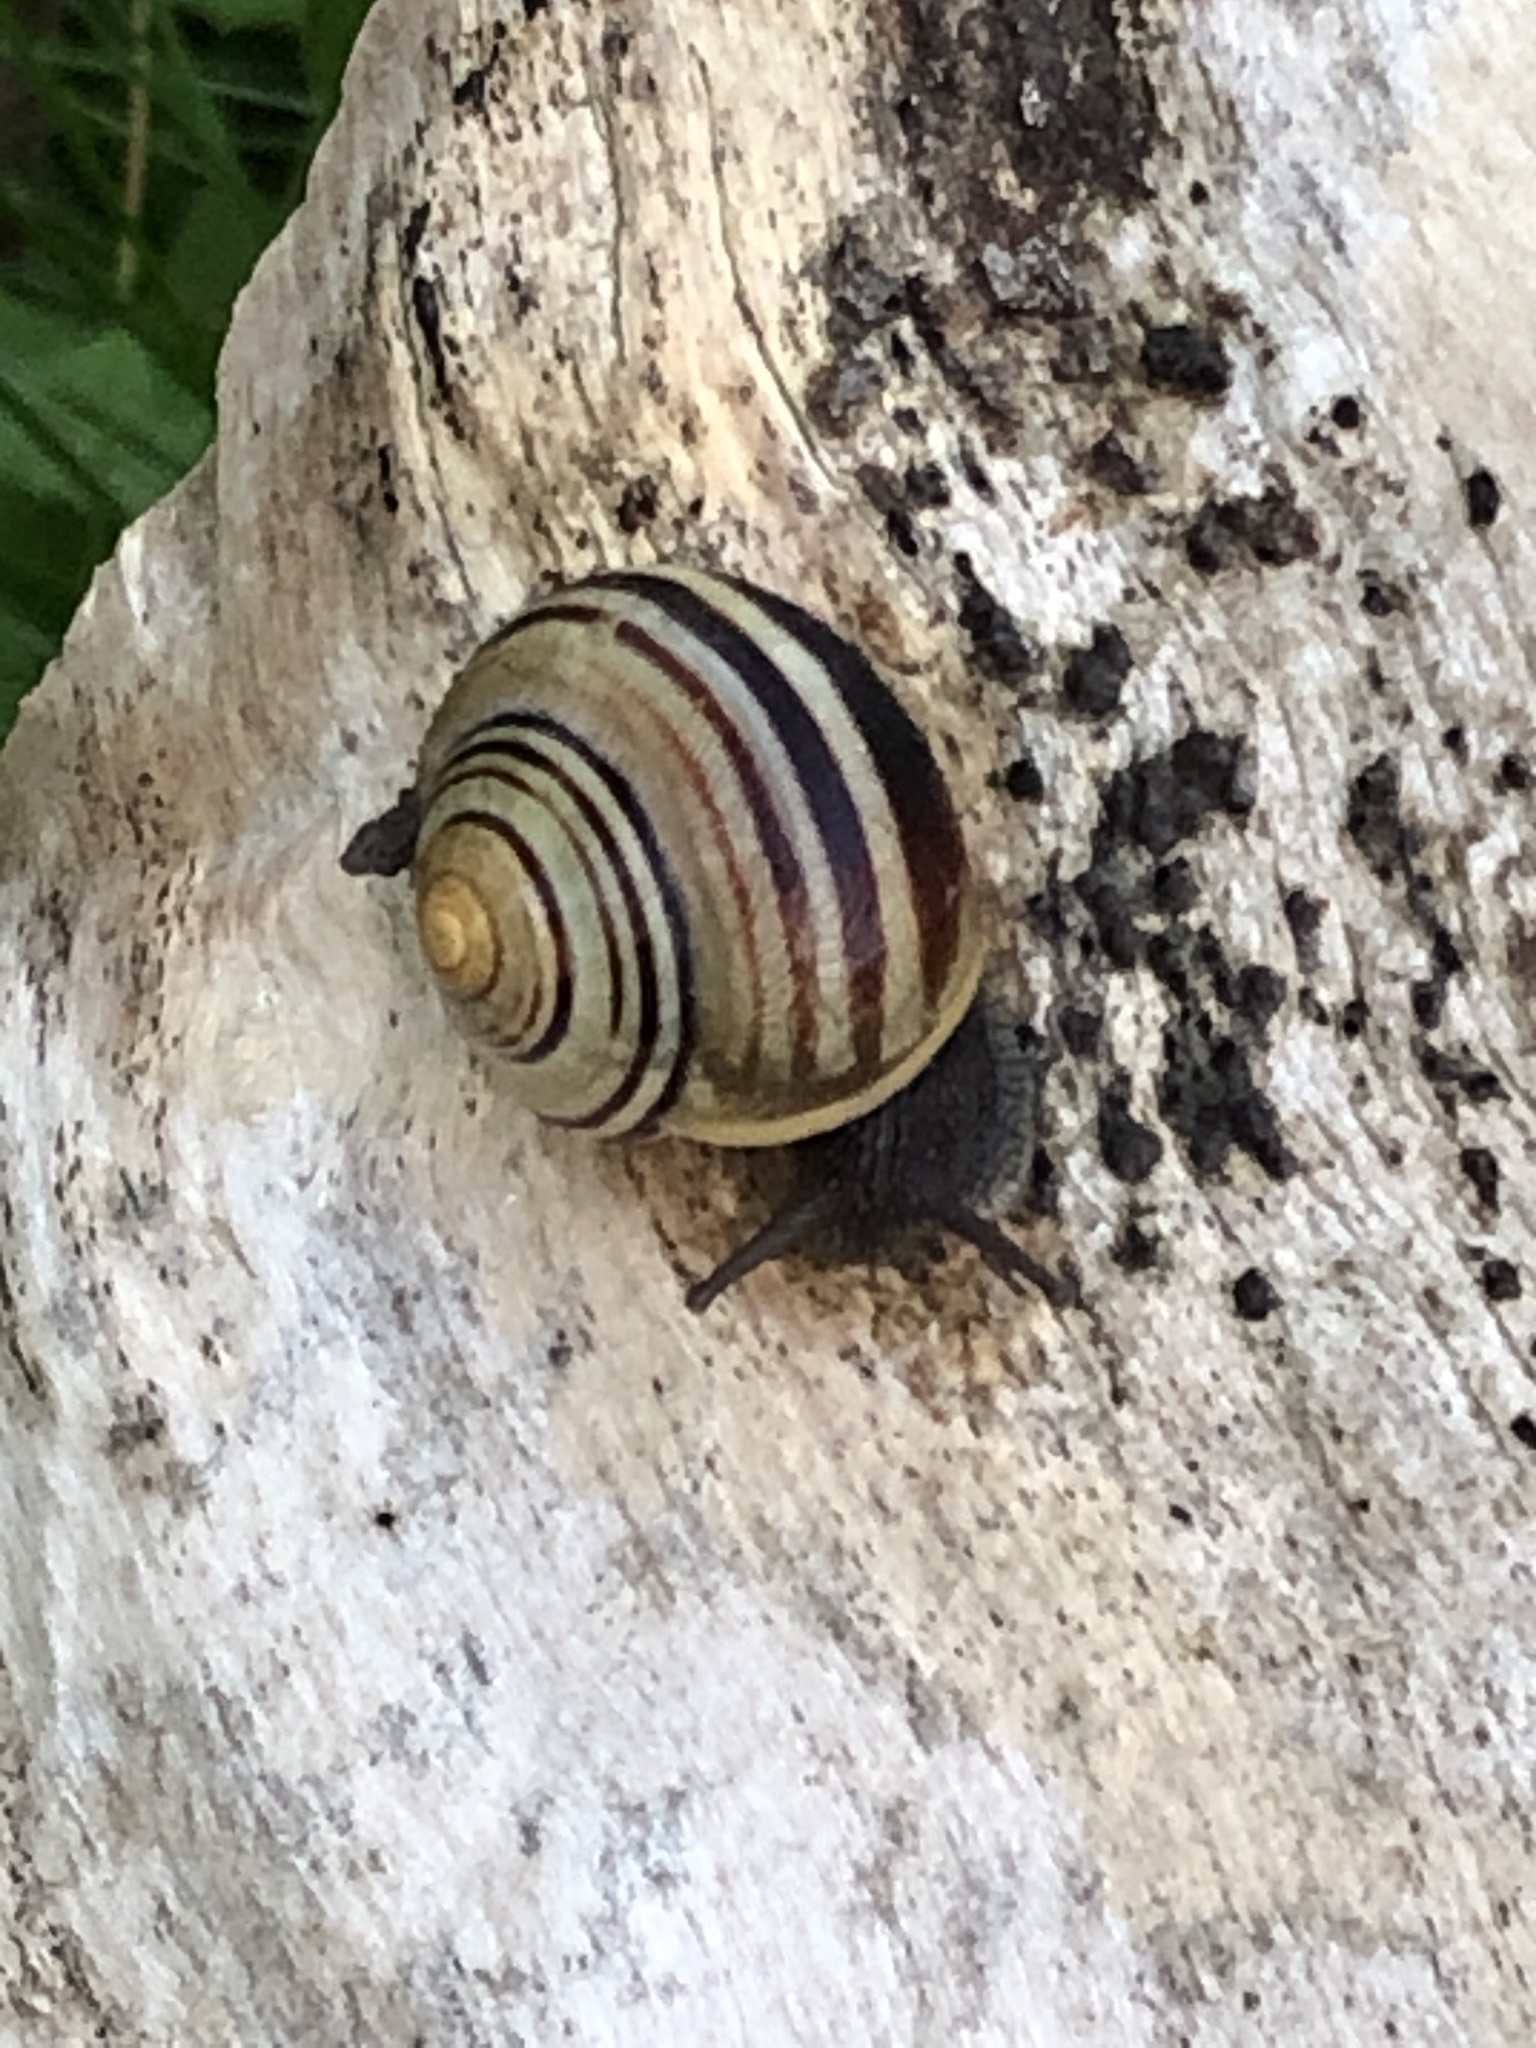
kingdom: Animalia
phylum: Mollusca
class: Gastropoda
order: Stylommatophora
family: Helicidae
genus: Cepaea
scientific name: Cepaea
